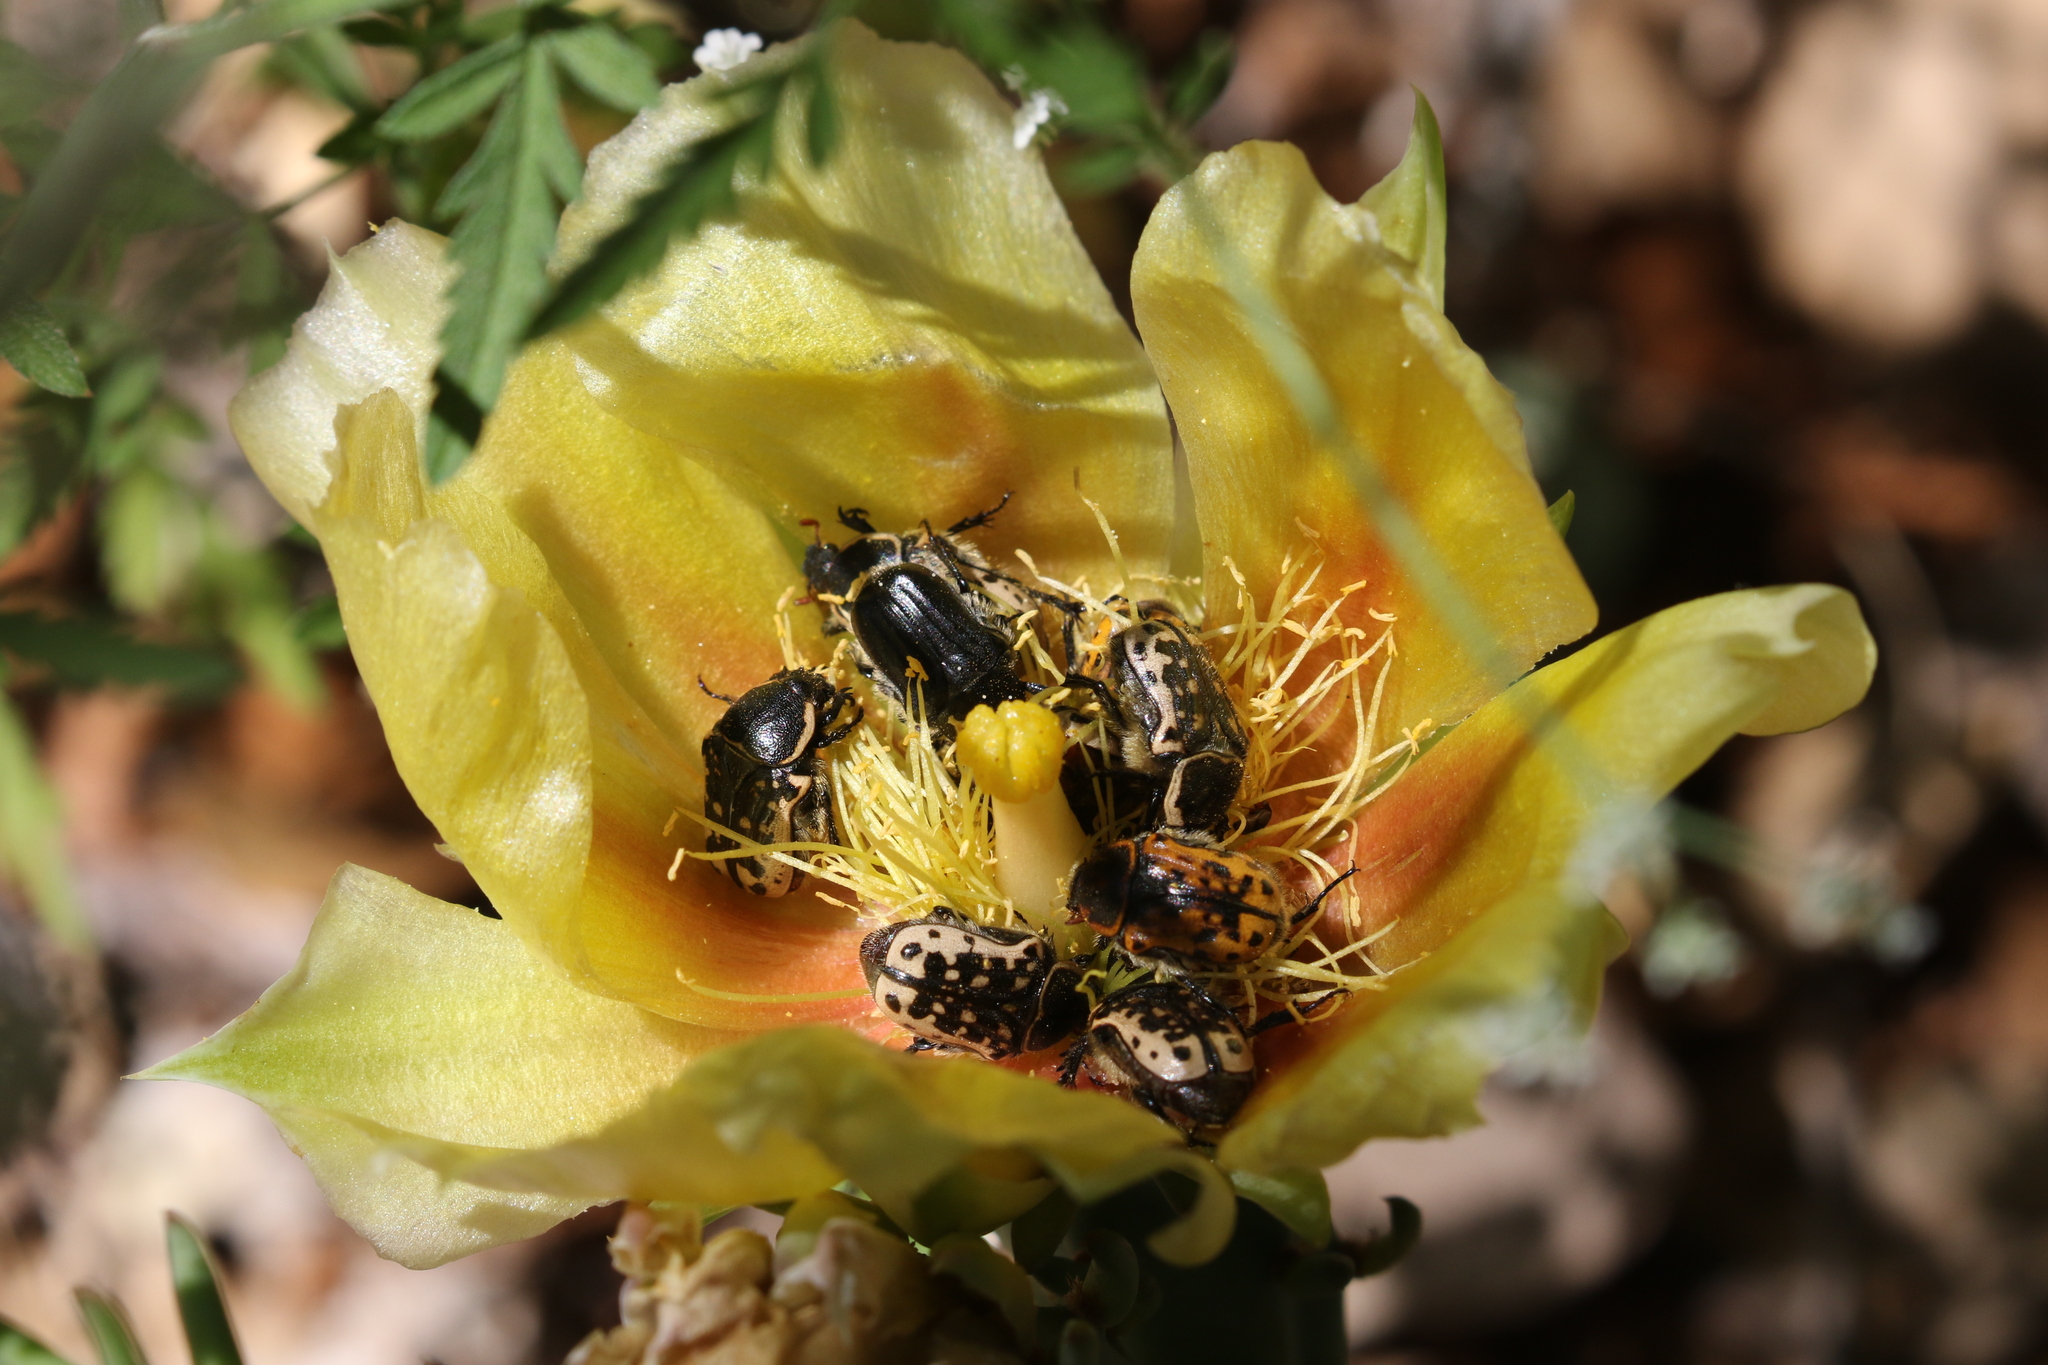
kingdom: Animalia
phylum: Arthropoda
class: Insecta
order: Coleoptera
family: Scarabaeidae
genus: Euphoria
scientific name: Euphoria kernii
